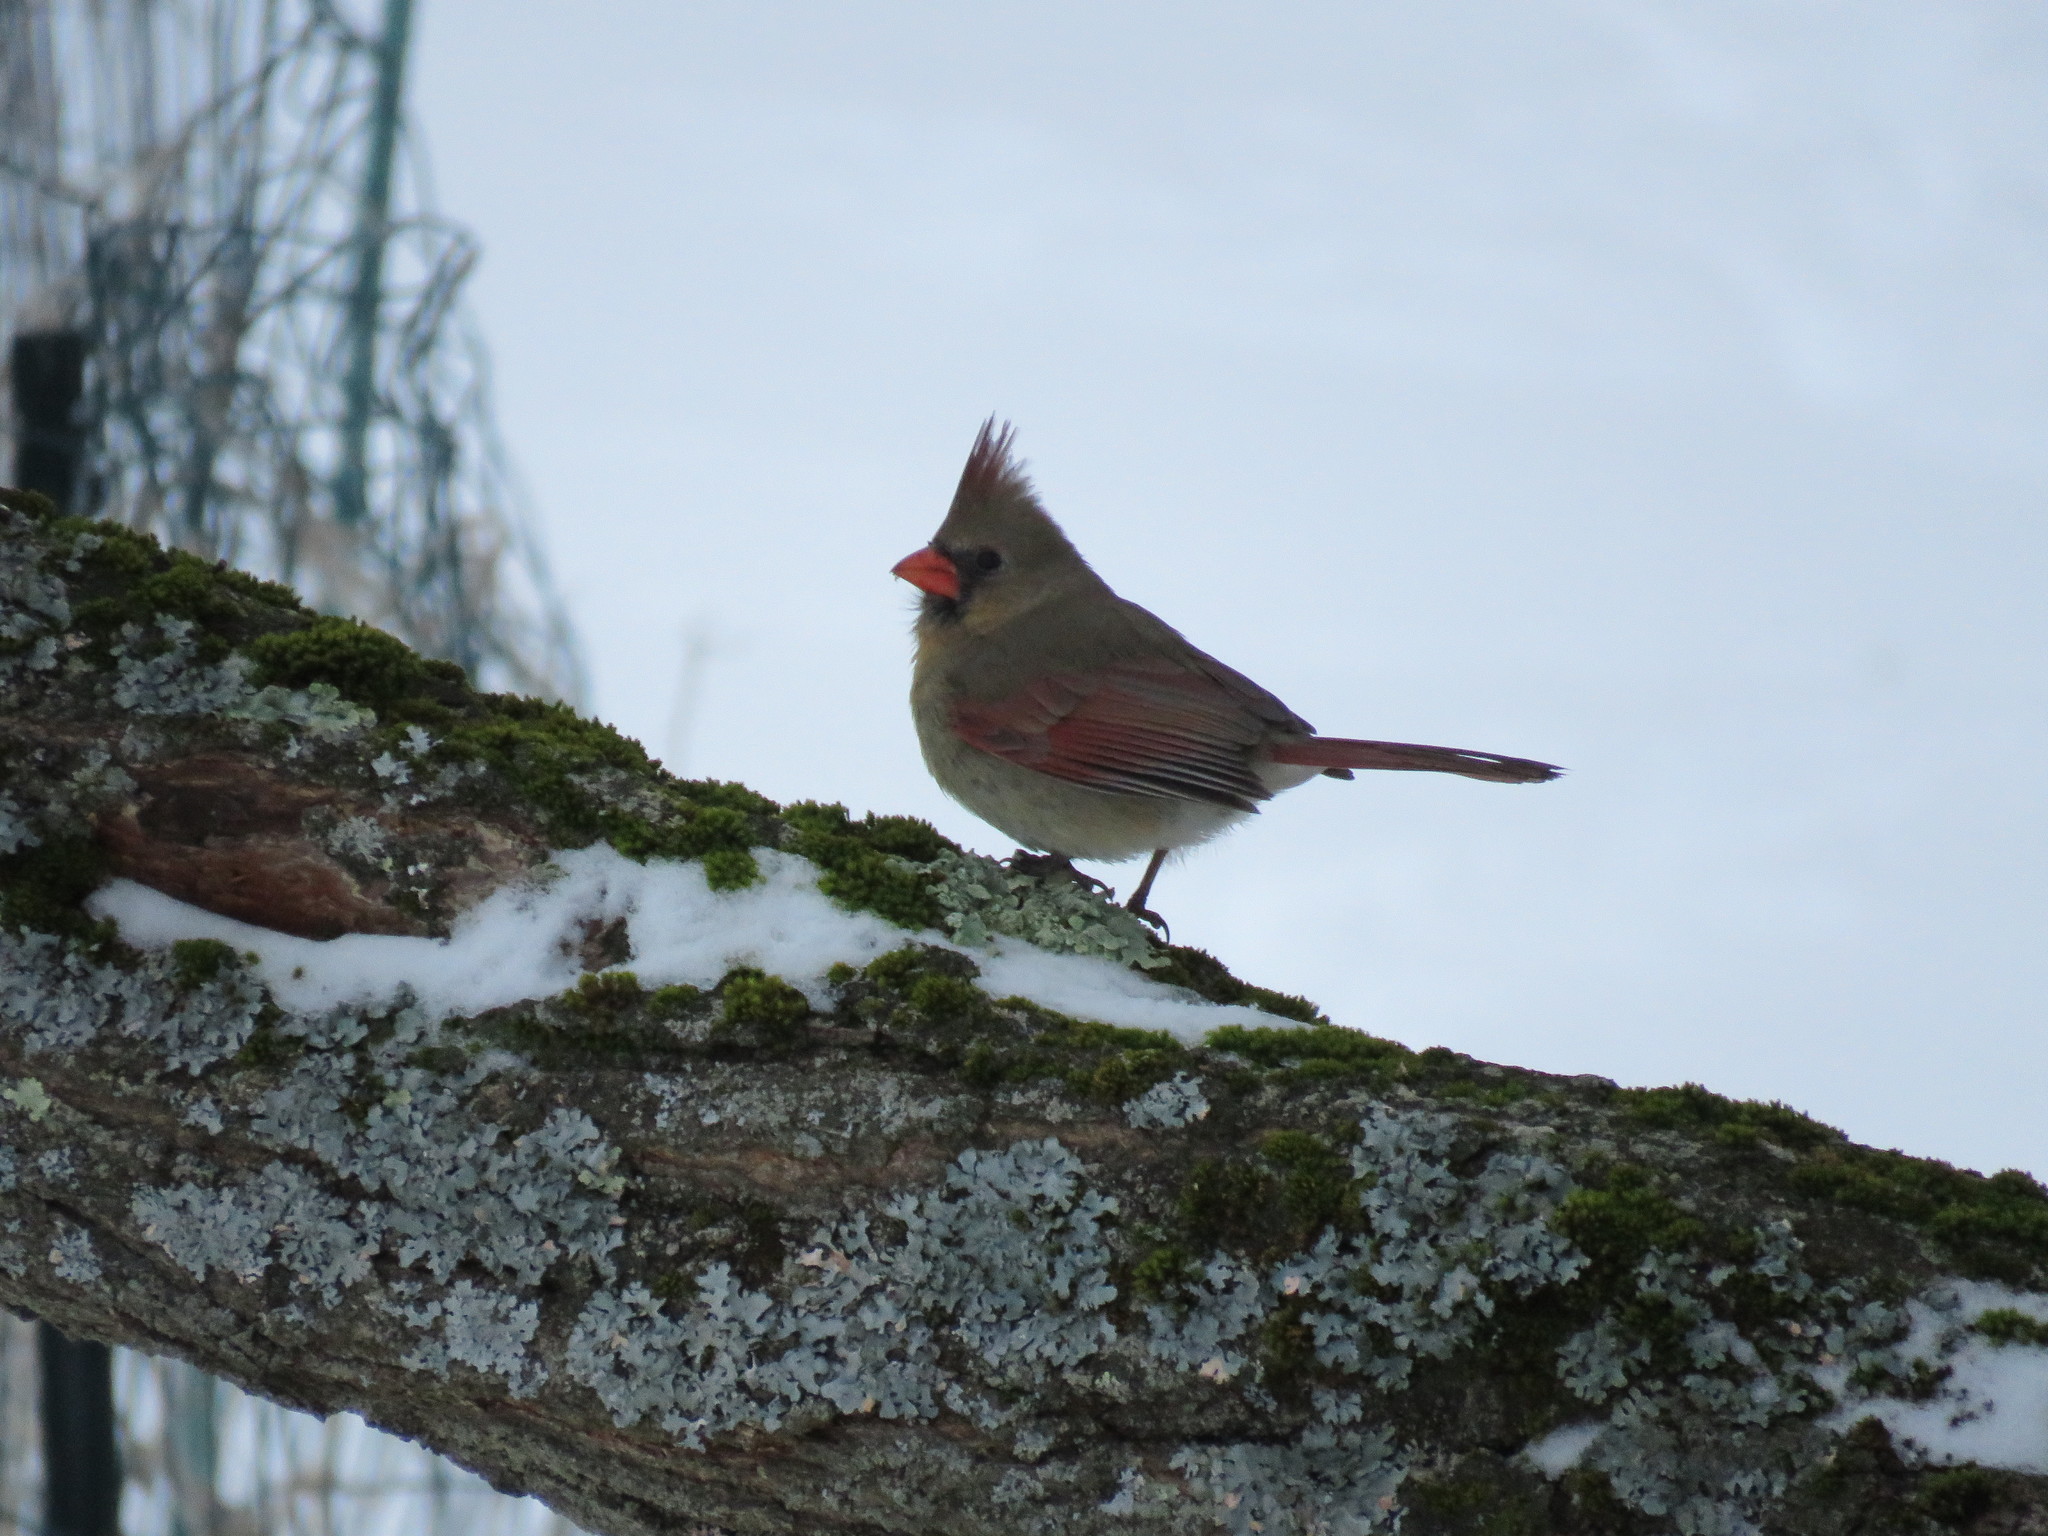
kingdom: Animalia
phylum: Chordata
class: Aves
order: Passeriformes
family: Cardinalidae
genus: Cardinalis
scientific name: Cardinalis cardinalis
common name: Northern cardinal
